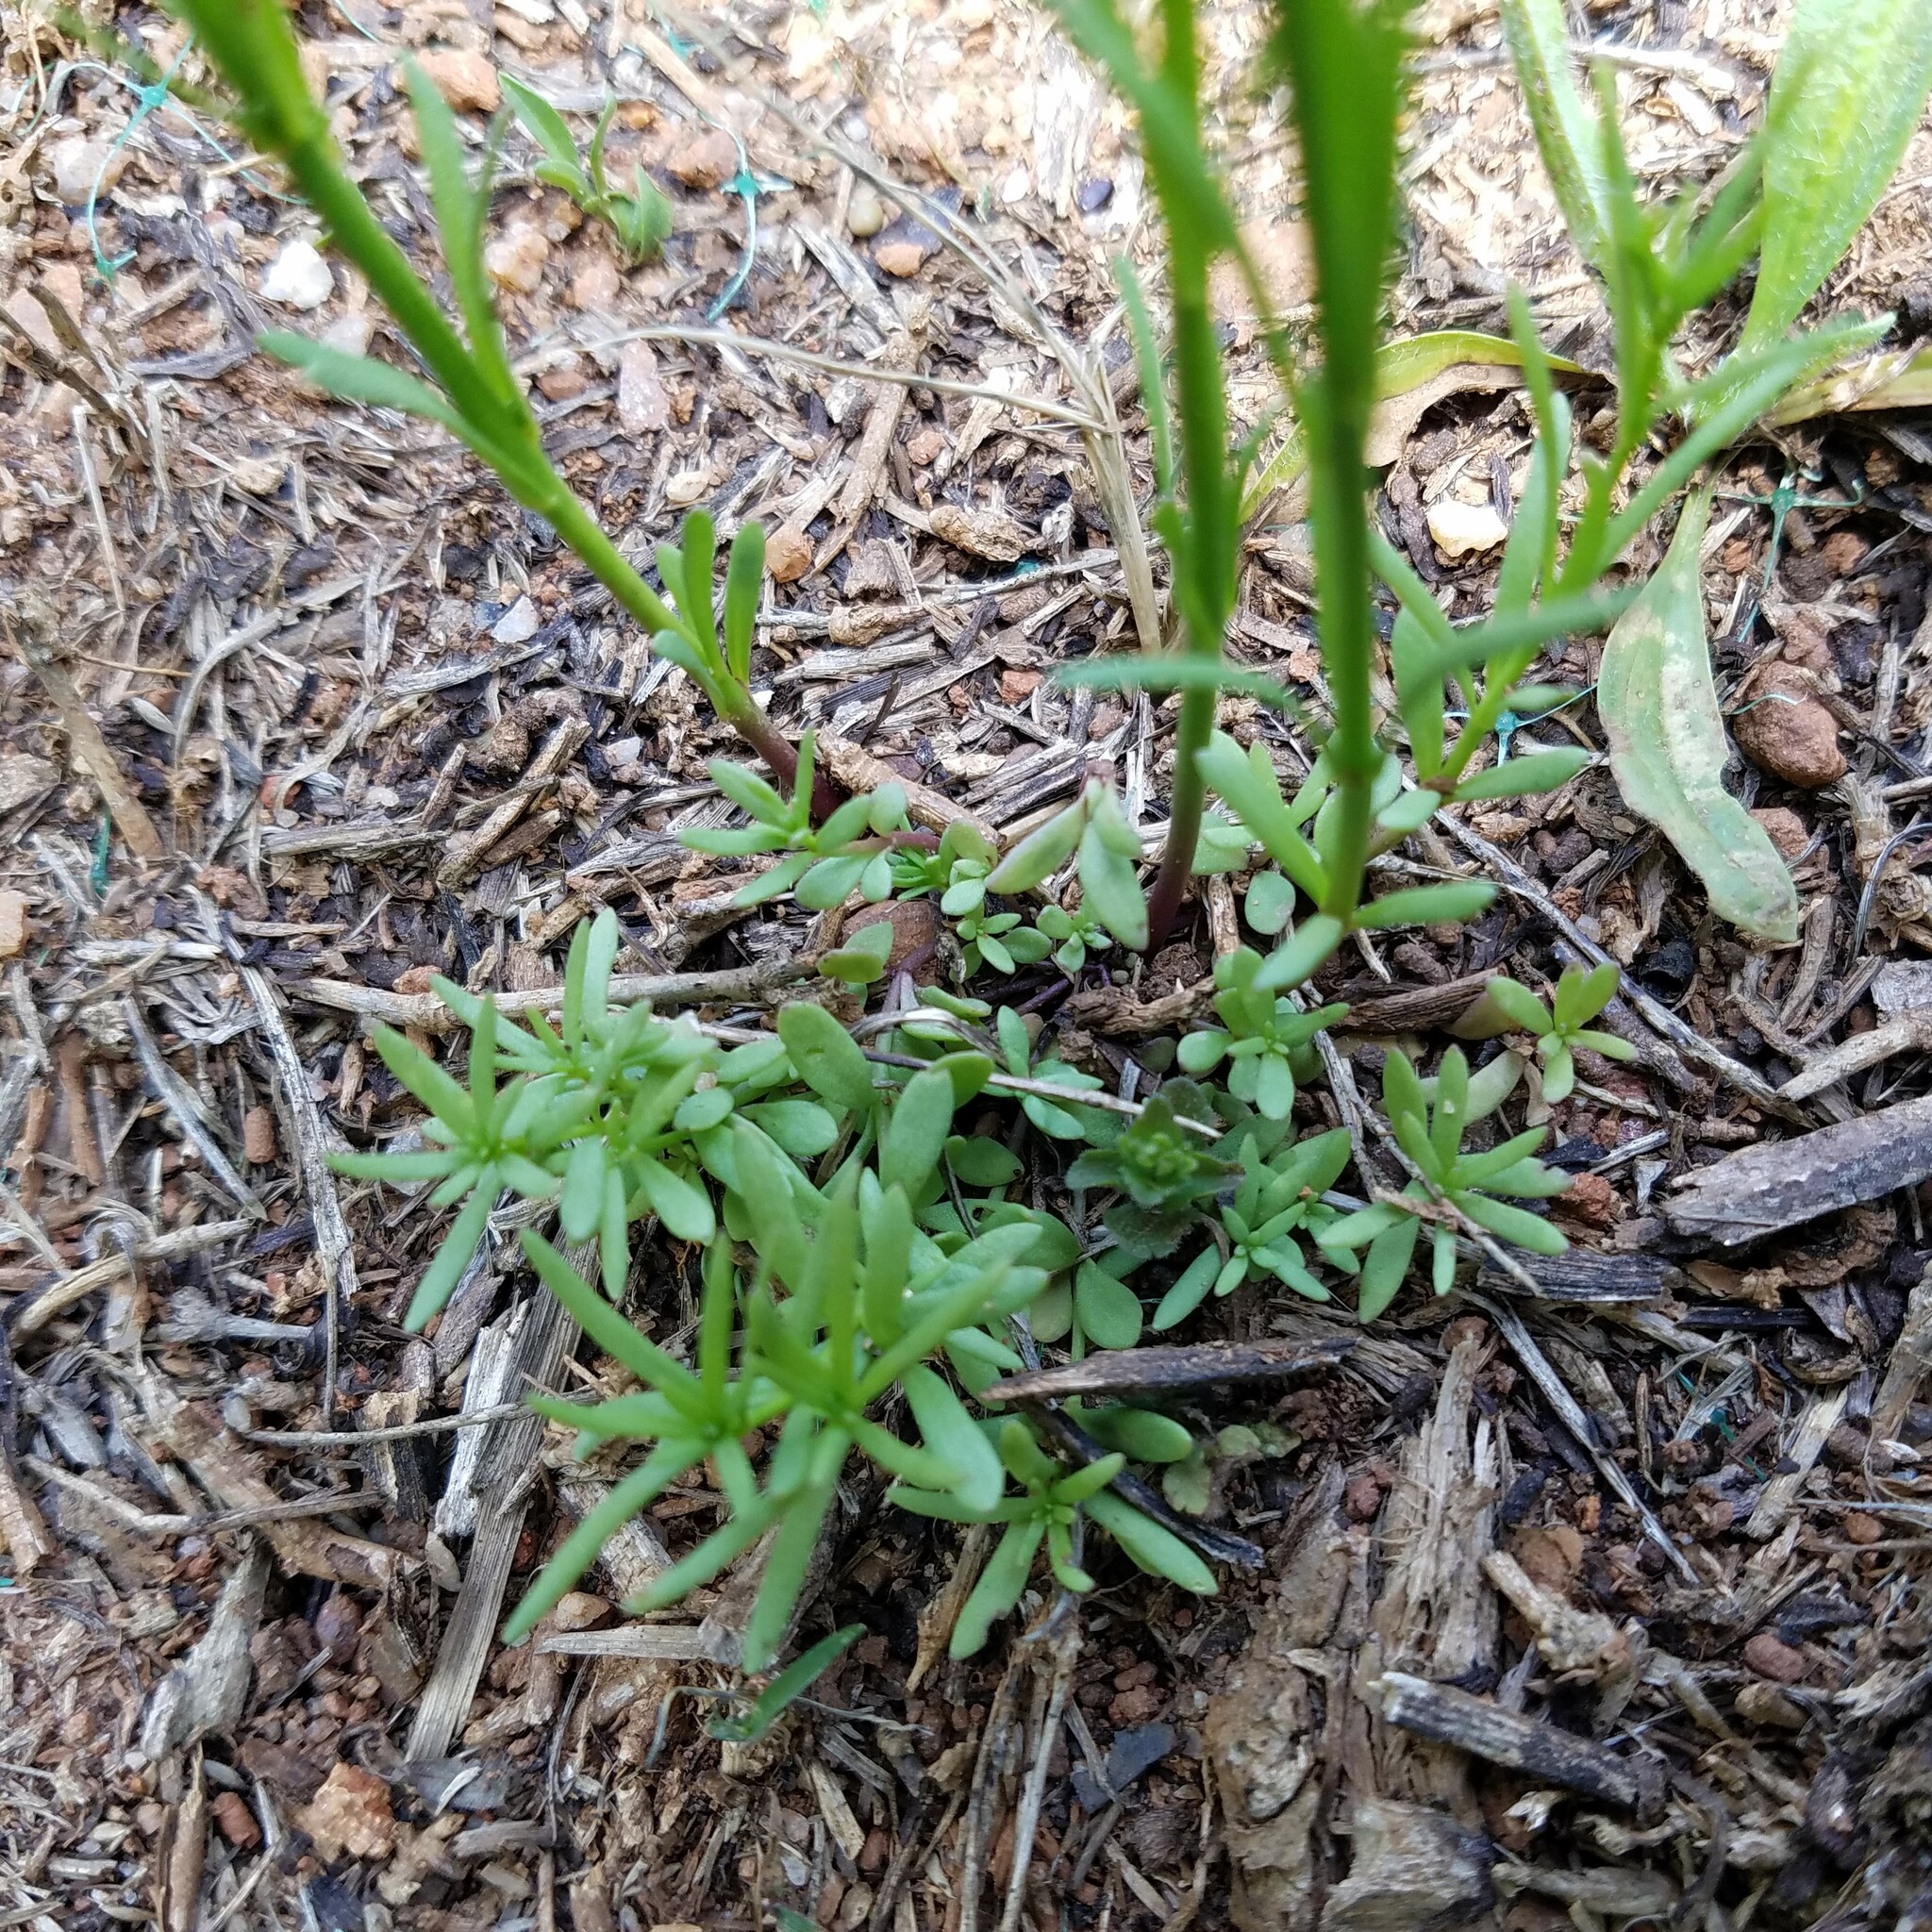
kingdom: Plantae
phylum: Tracheophyta
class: Magnoliopsida
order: Lamiales
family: Plantaginaceae
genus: Nuttallanthus
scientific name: Nuttallanthus canadensis
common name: Blue toadflax
